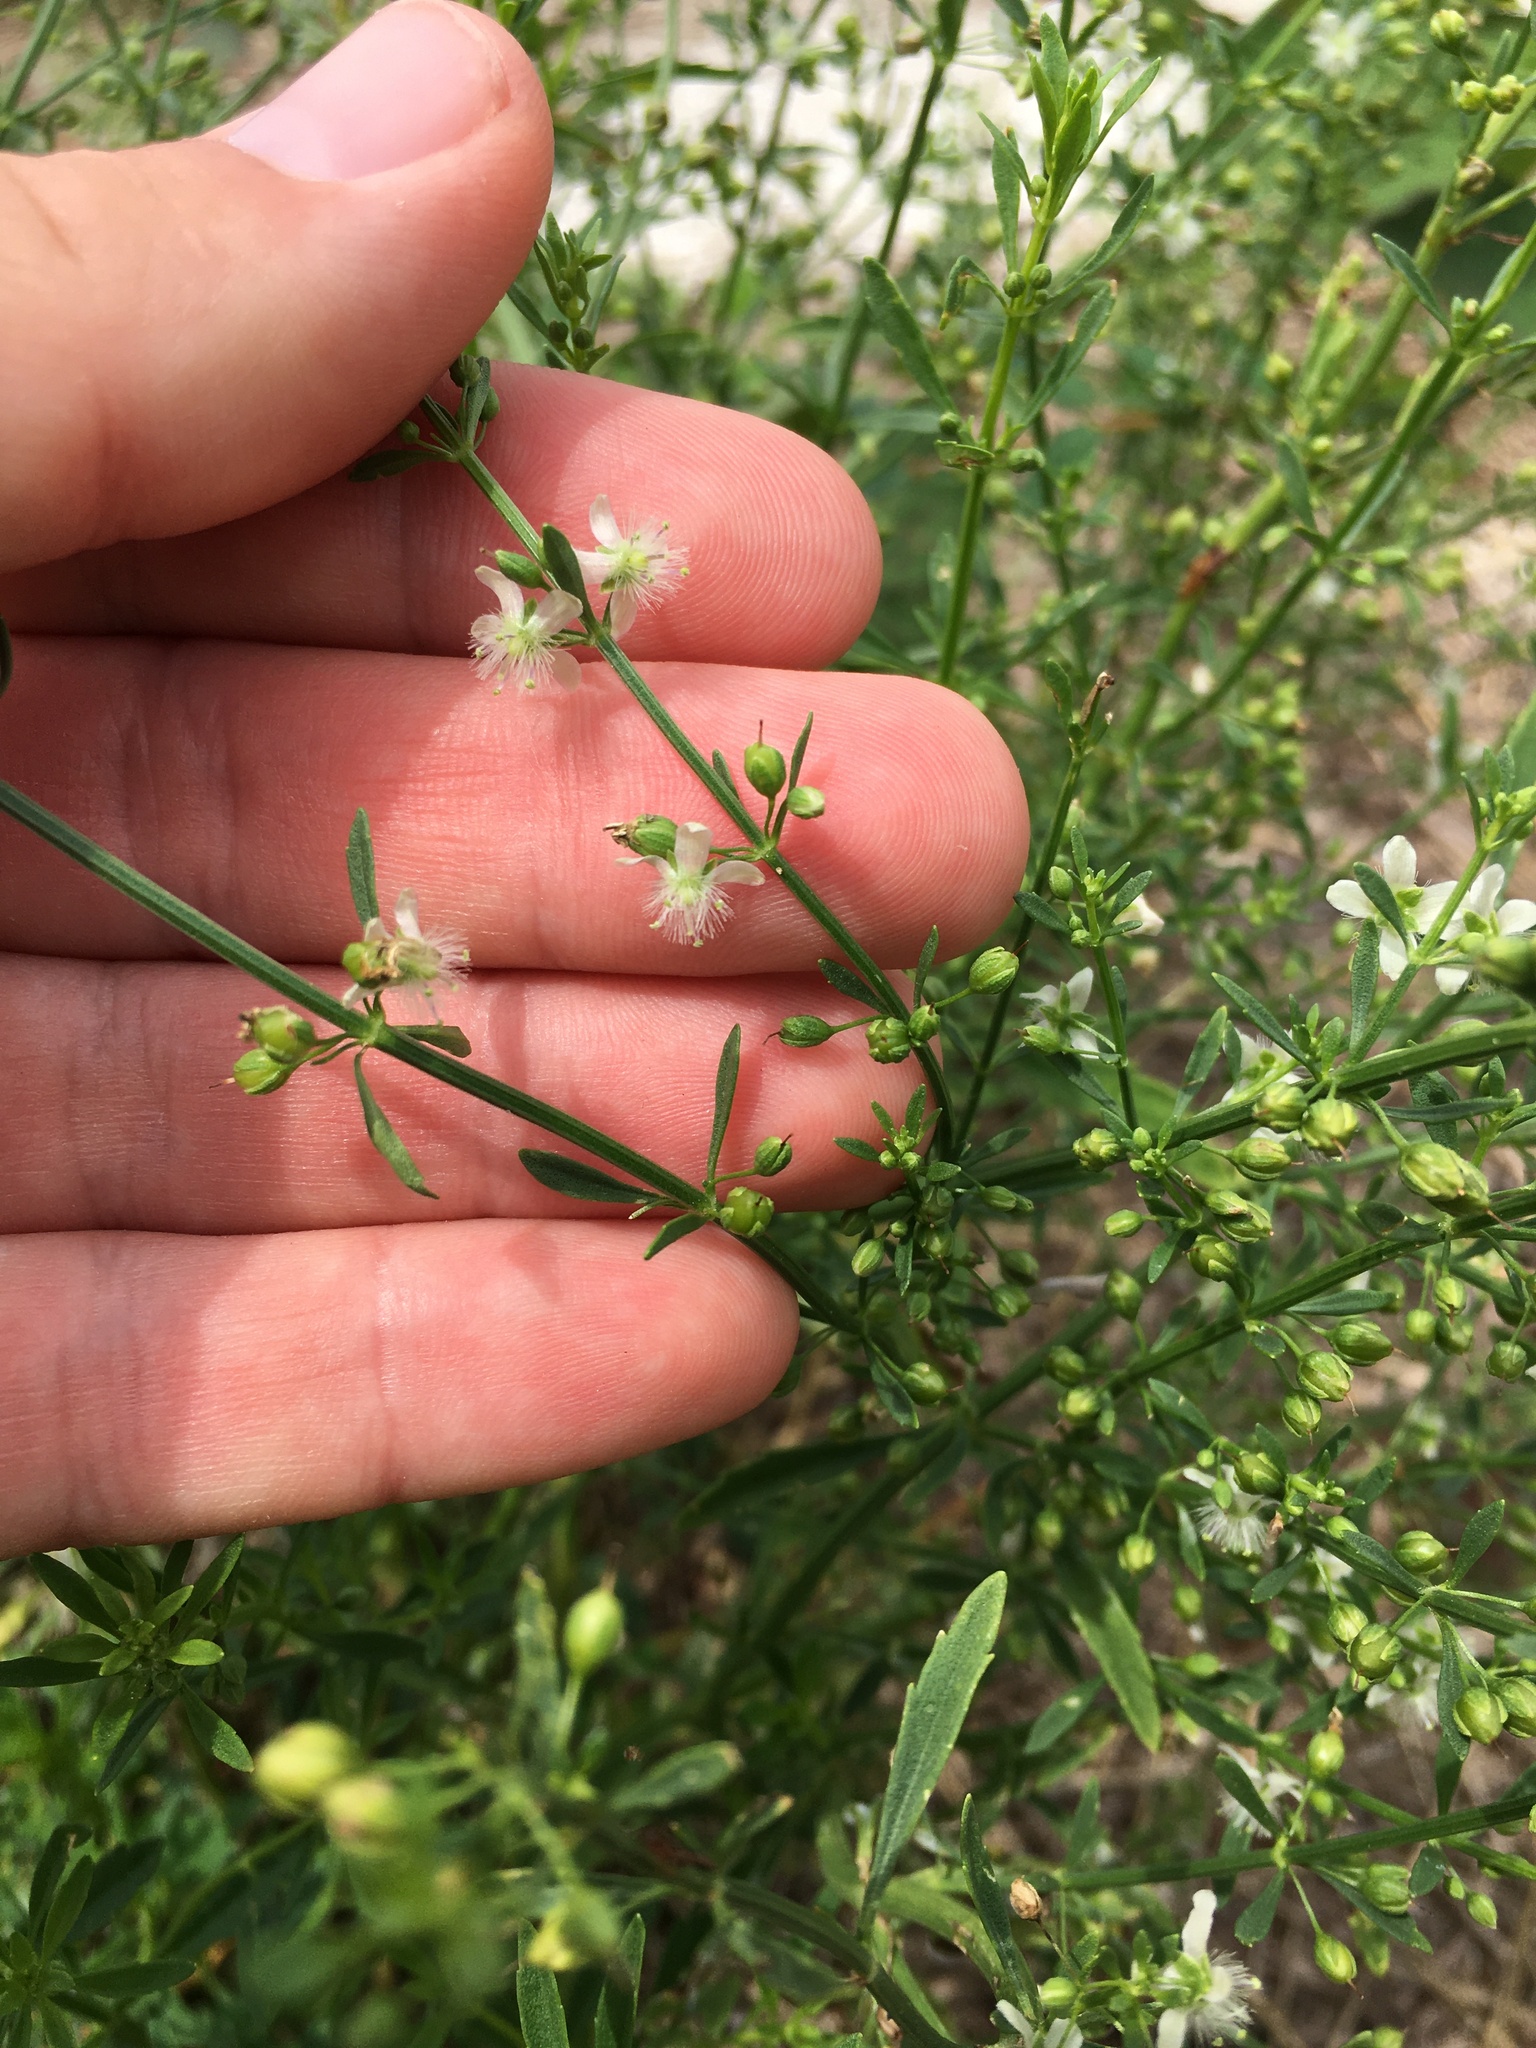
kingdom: Plantae
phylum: Tracheophyta
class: Magnoliopsida
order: Lamiales
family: Plantaginaceae
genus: Scoparia
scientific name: Scoparia dulcis
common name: Scoparia-weed
